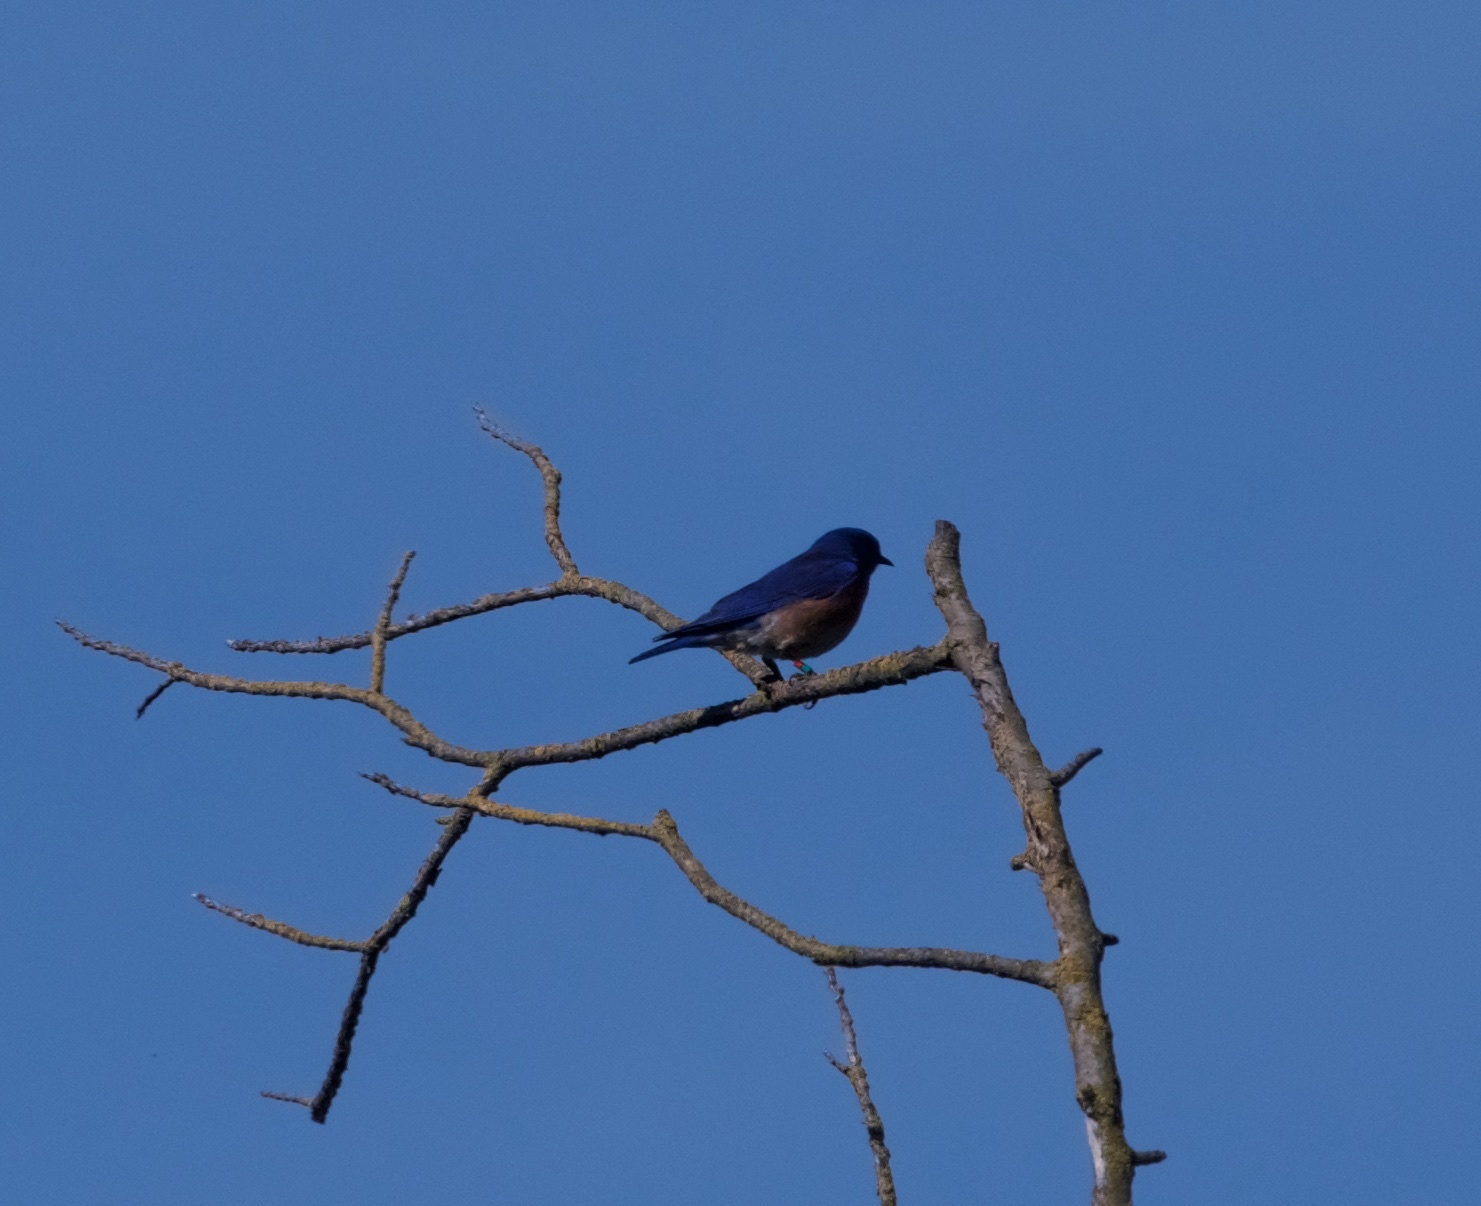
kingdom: Animalia
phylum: Chordata
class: Aves
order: Passeriformes
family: Turdidae
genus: Sialia
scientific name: Sialia mexicana
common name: Western bluebird
